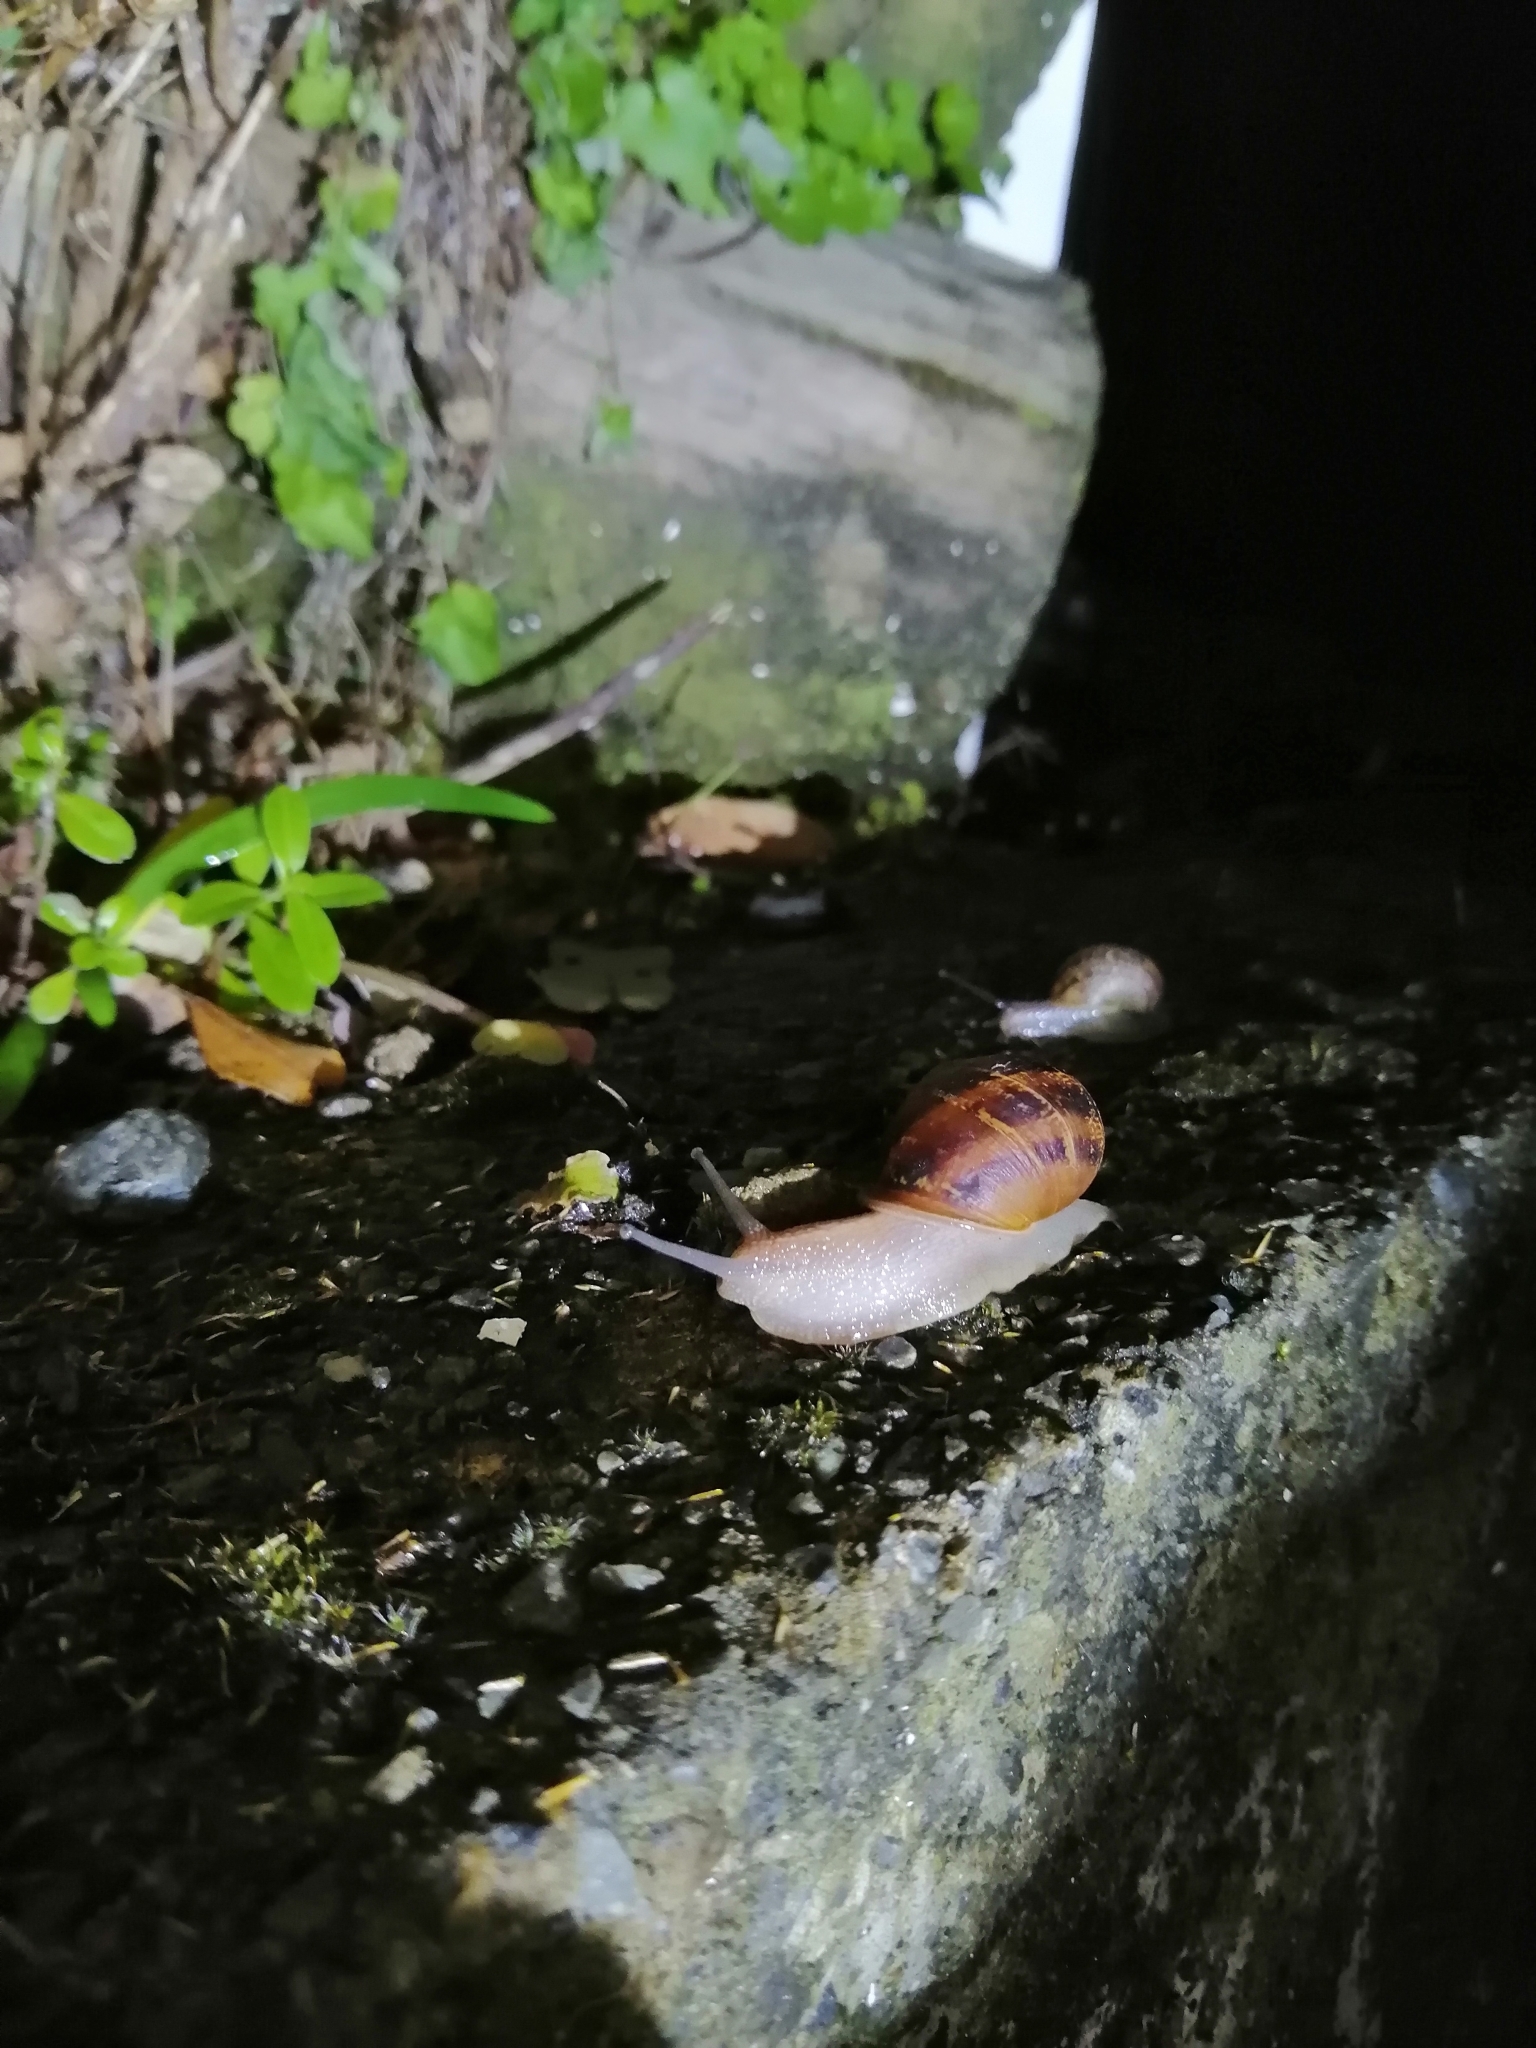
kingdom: Animalia
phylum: Mollusca
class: Gastropoda
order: Stylommatophora
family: Helicidae
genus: Cornu
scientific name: Cornu aspersum
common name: Brown garden snail
